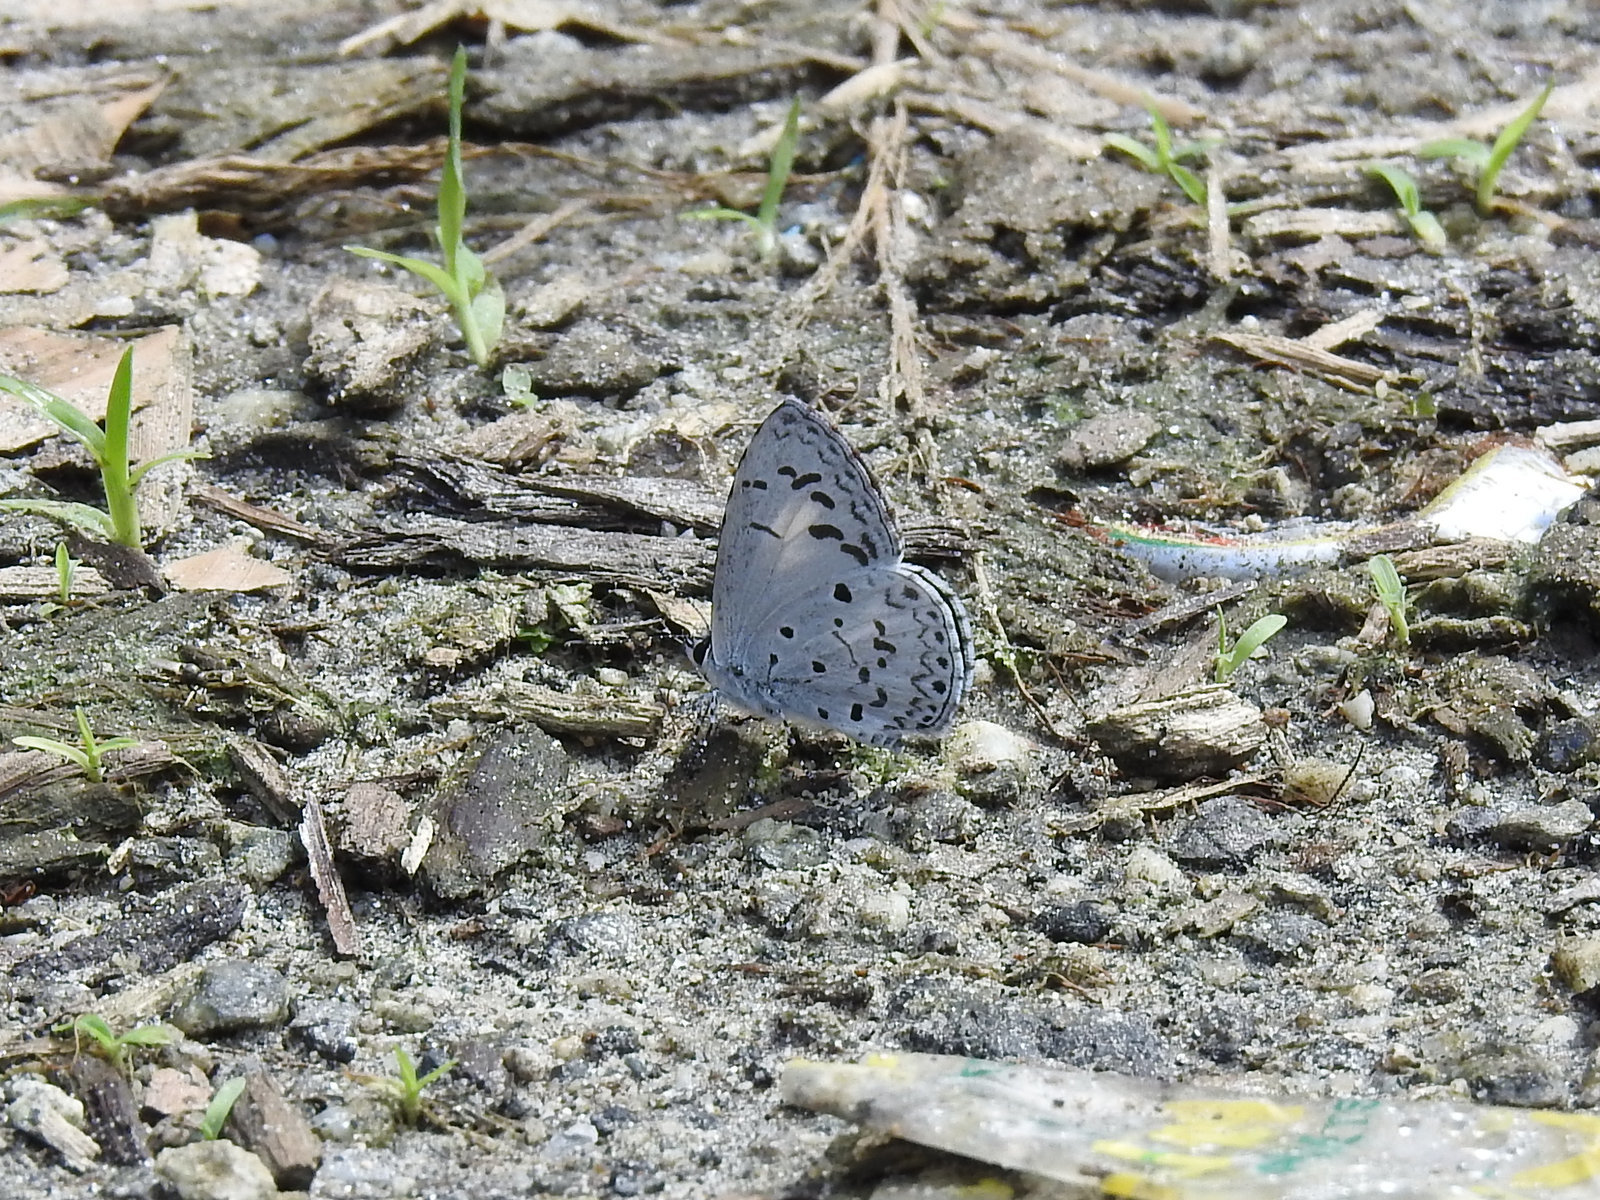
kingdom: Animalia
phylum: Arthropoda
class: Insecta
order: Lepidoptera
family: Lycaenidae
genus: Acytolepis
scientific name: Acytolepis puspa
